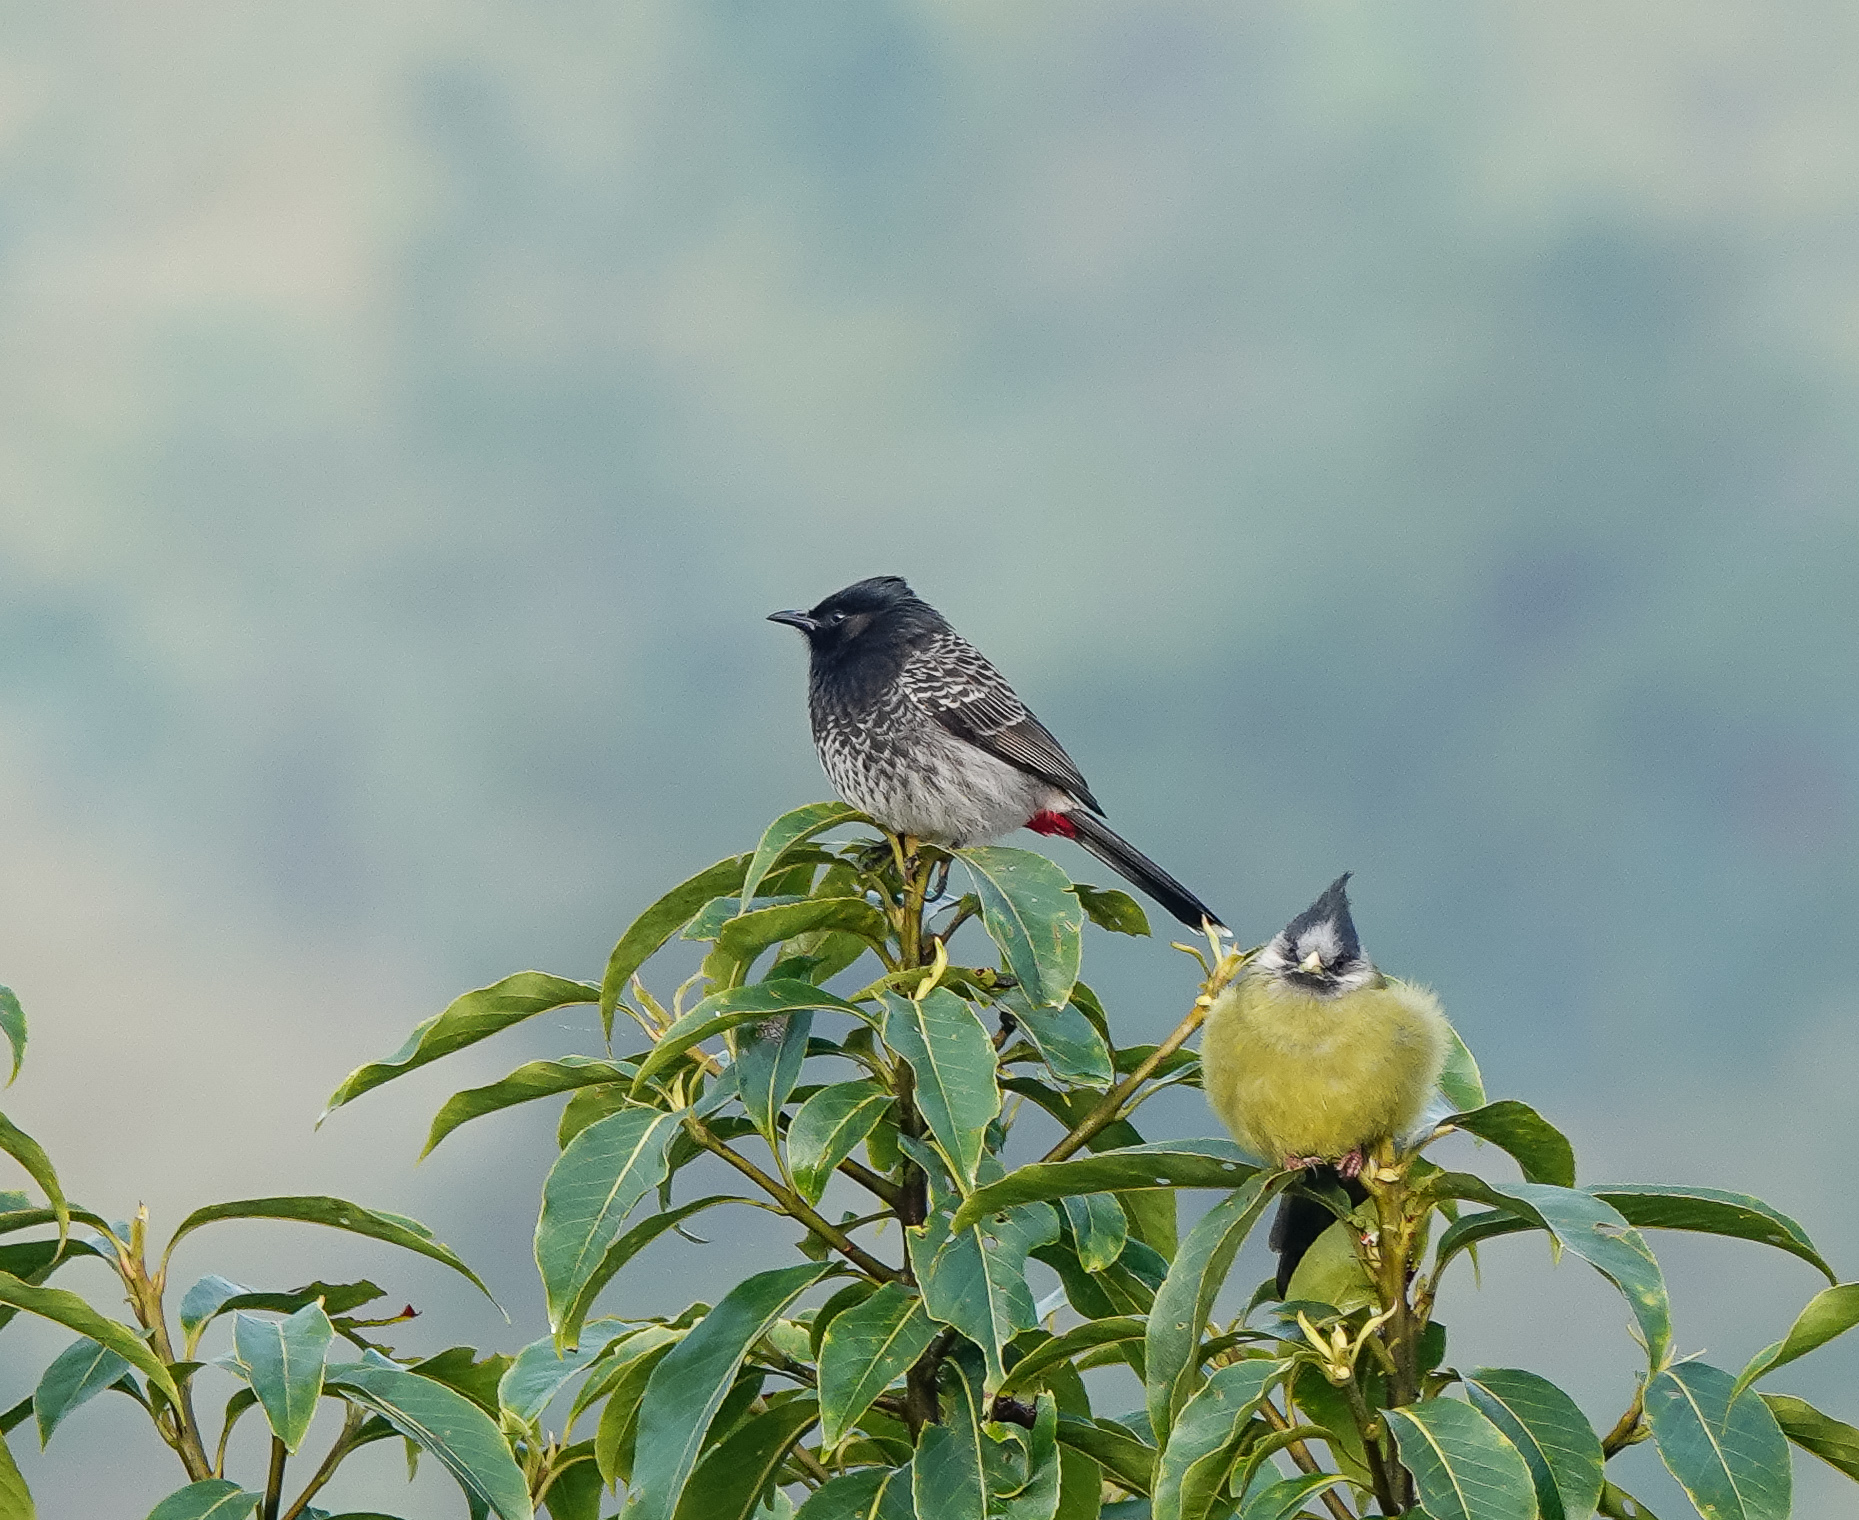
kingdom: Animalia
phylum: Chordata
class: Aves
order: Passeriformes
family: Pycnonotidae
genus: Pycnonotus
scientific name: Pycnonotus cafer
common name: Red-vented bulbul
